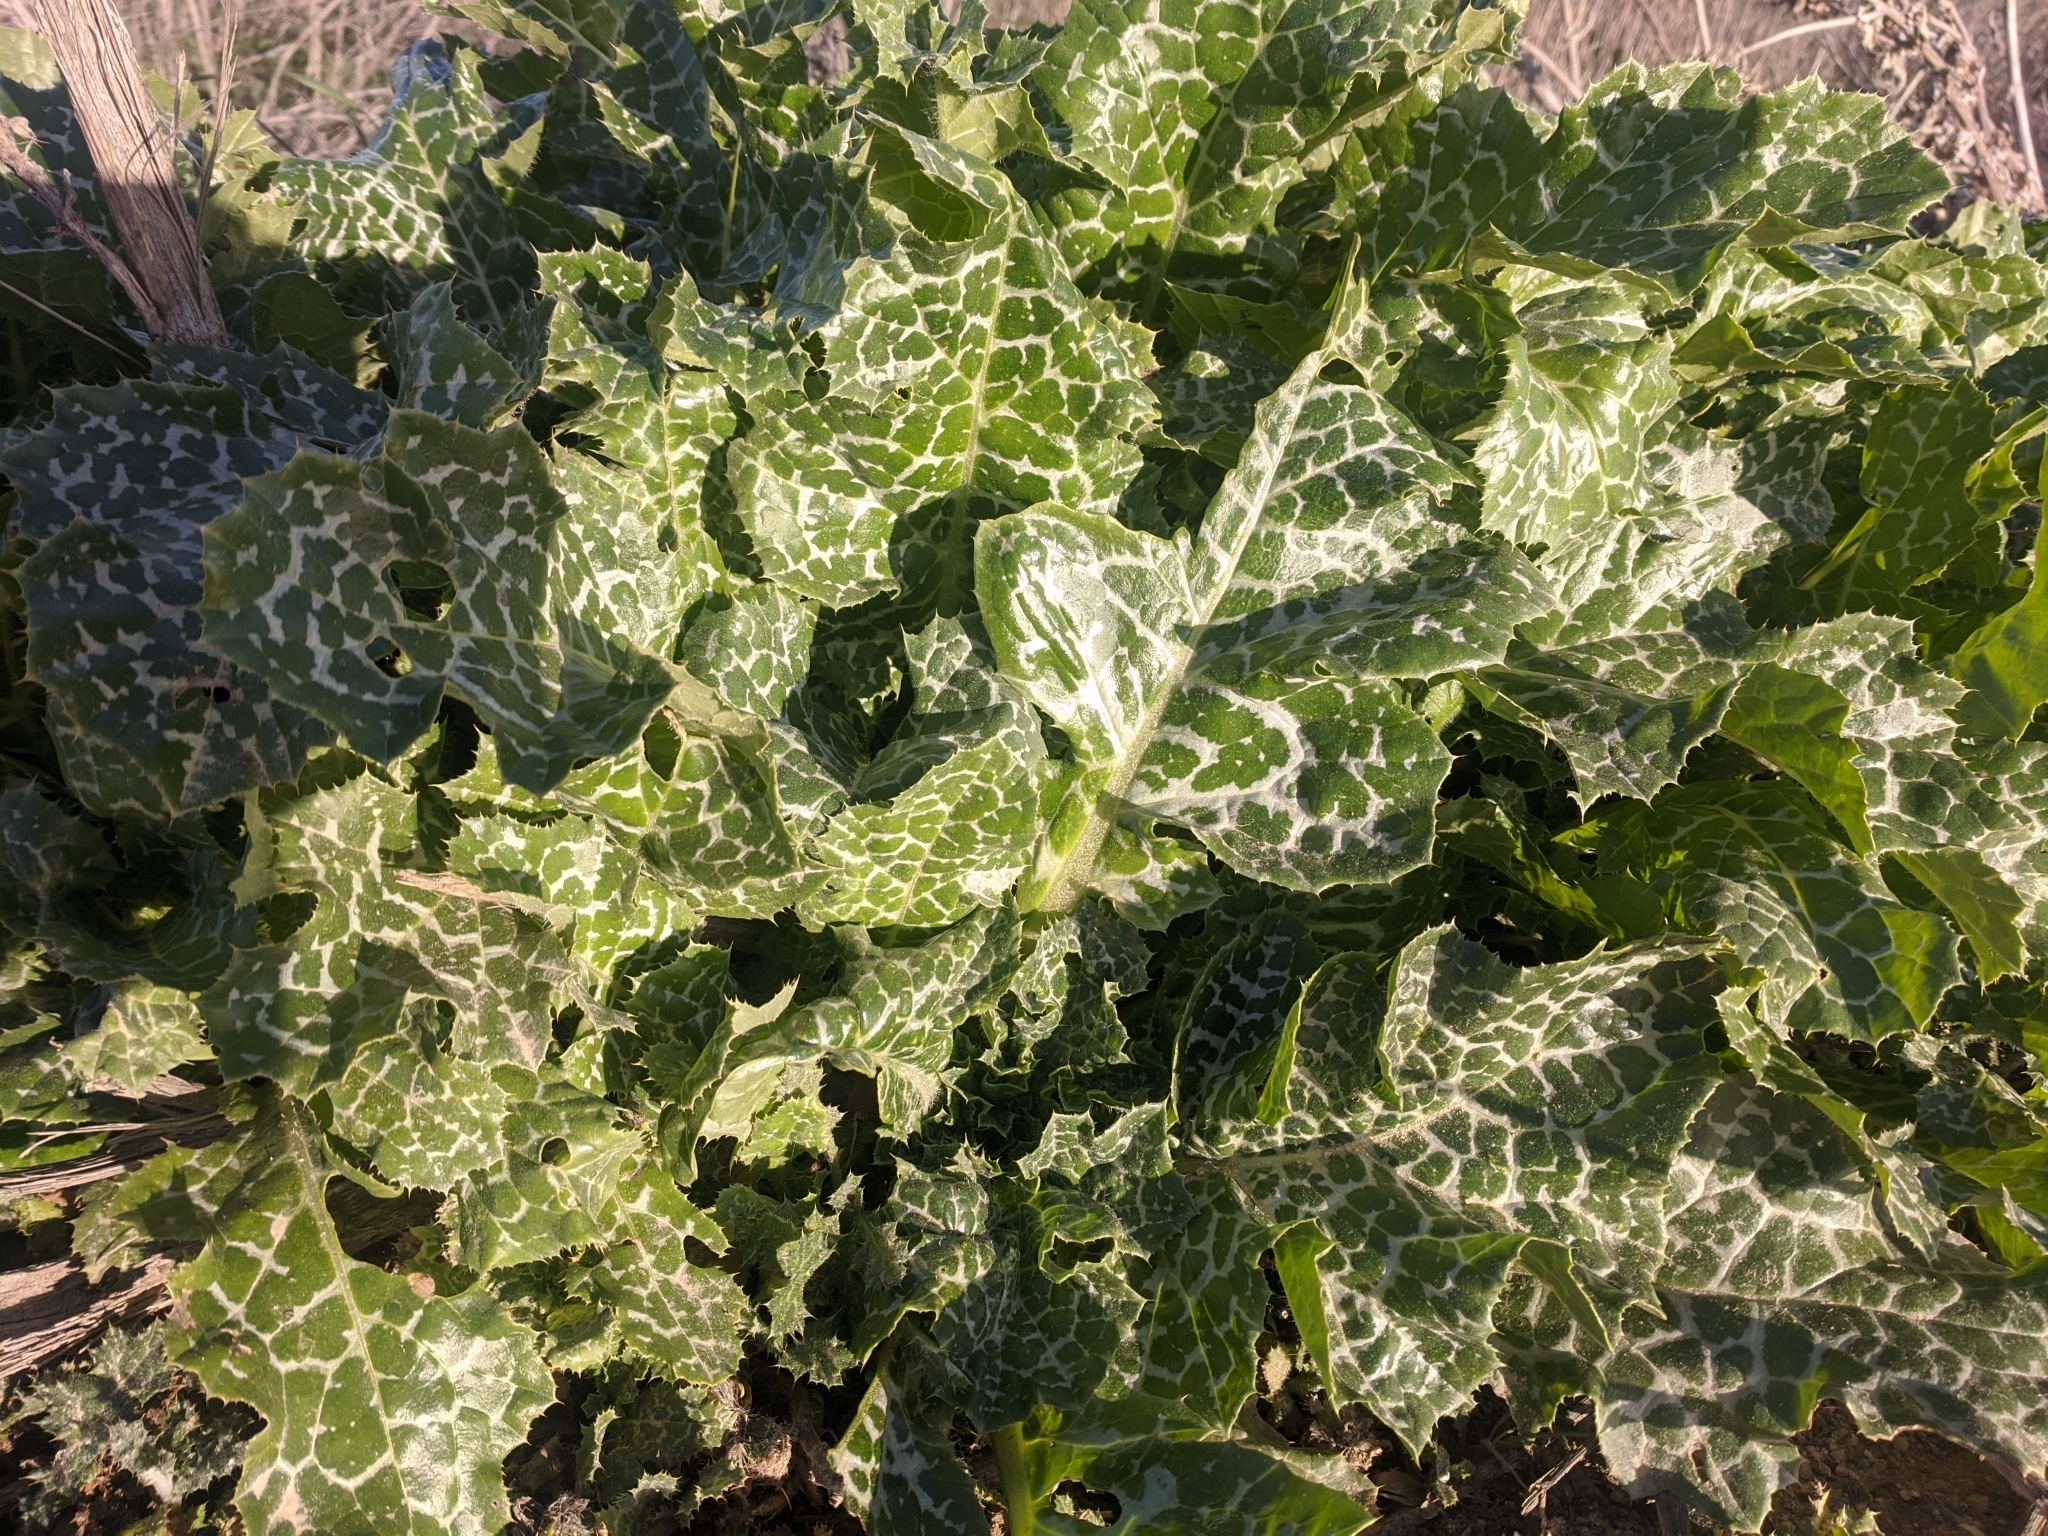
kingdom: Plantae
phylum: Tracheophyta
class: Magnoliopsida
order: Asterales
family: Asteraceae
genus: Silybum
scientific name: Silybum marianum
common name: Milk thistle
